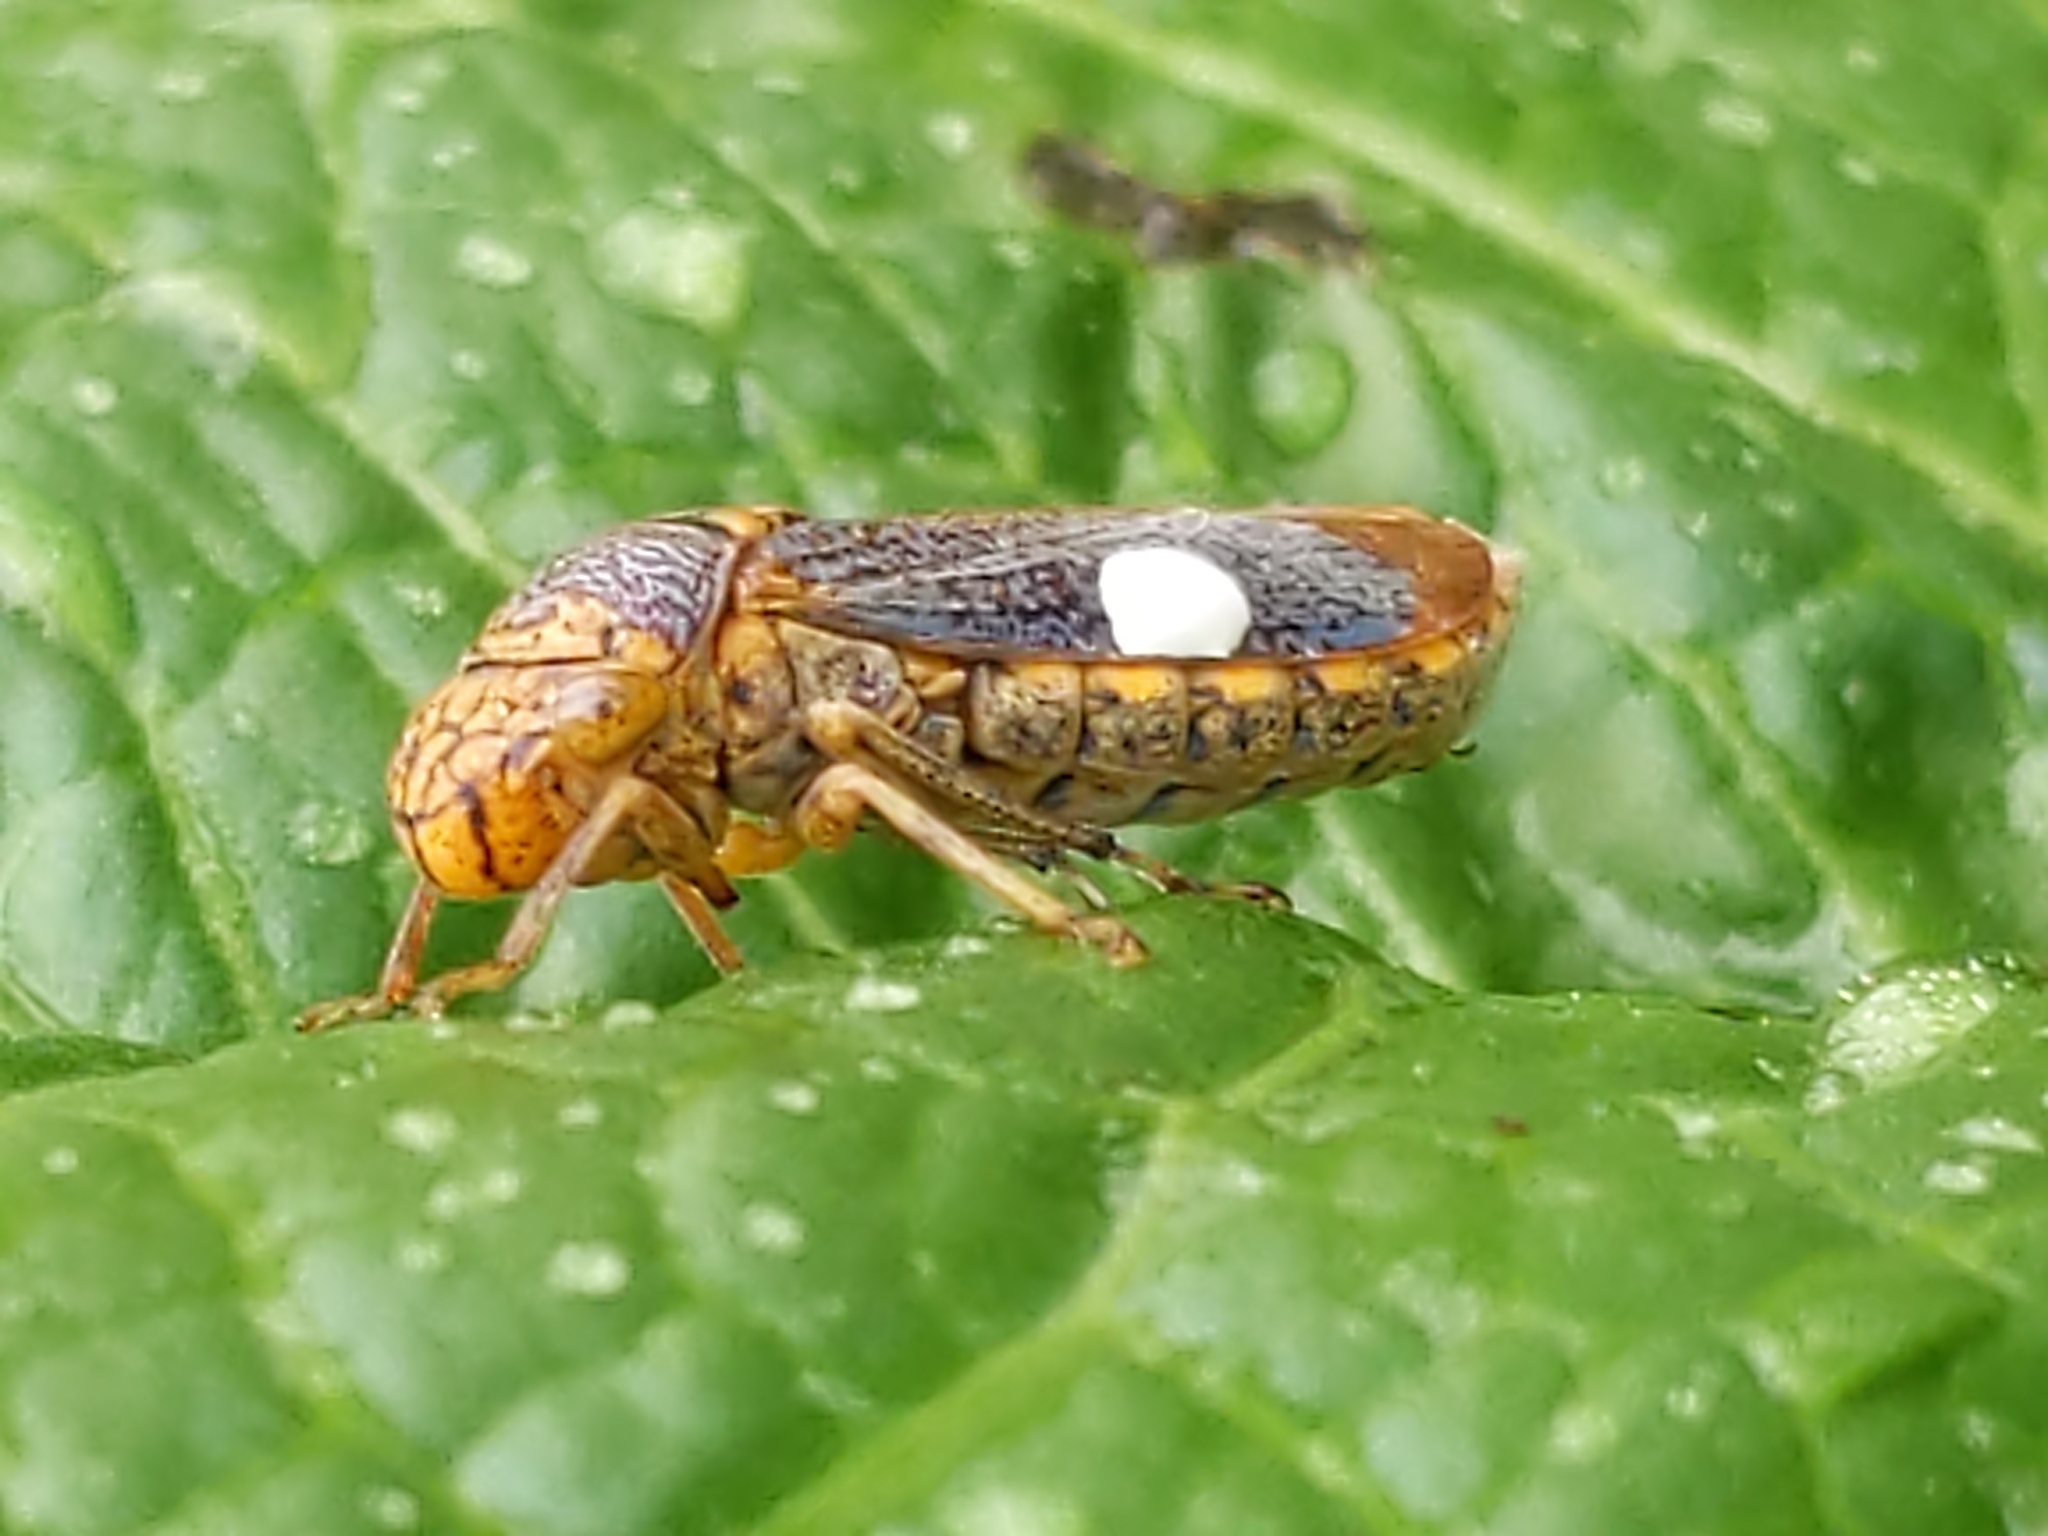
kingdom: Animalia
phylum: Arthropoda
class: Insecta
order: Hemiptera
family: Cicadellidae
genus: Oncometopia
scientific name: Oncometopia orbona
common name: Broad-headed sharpshooter
